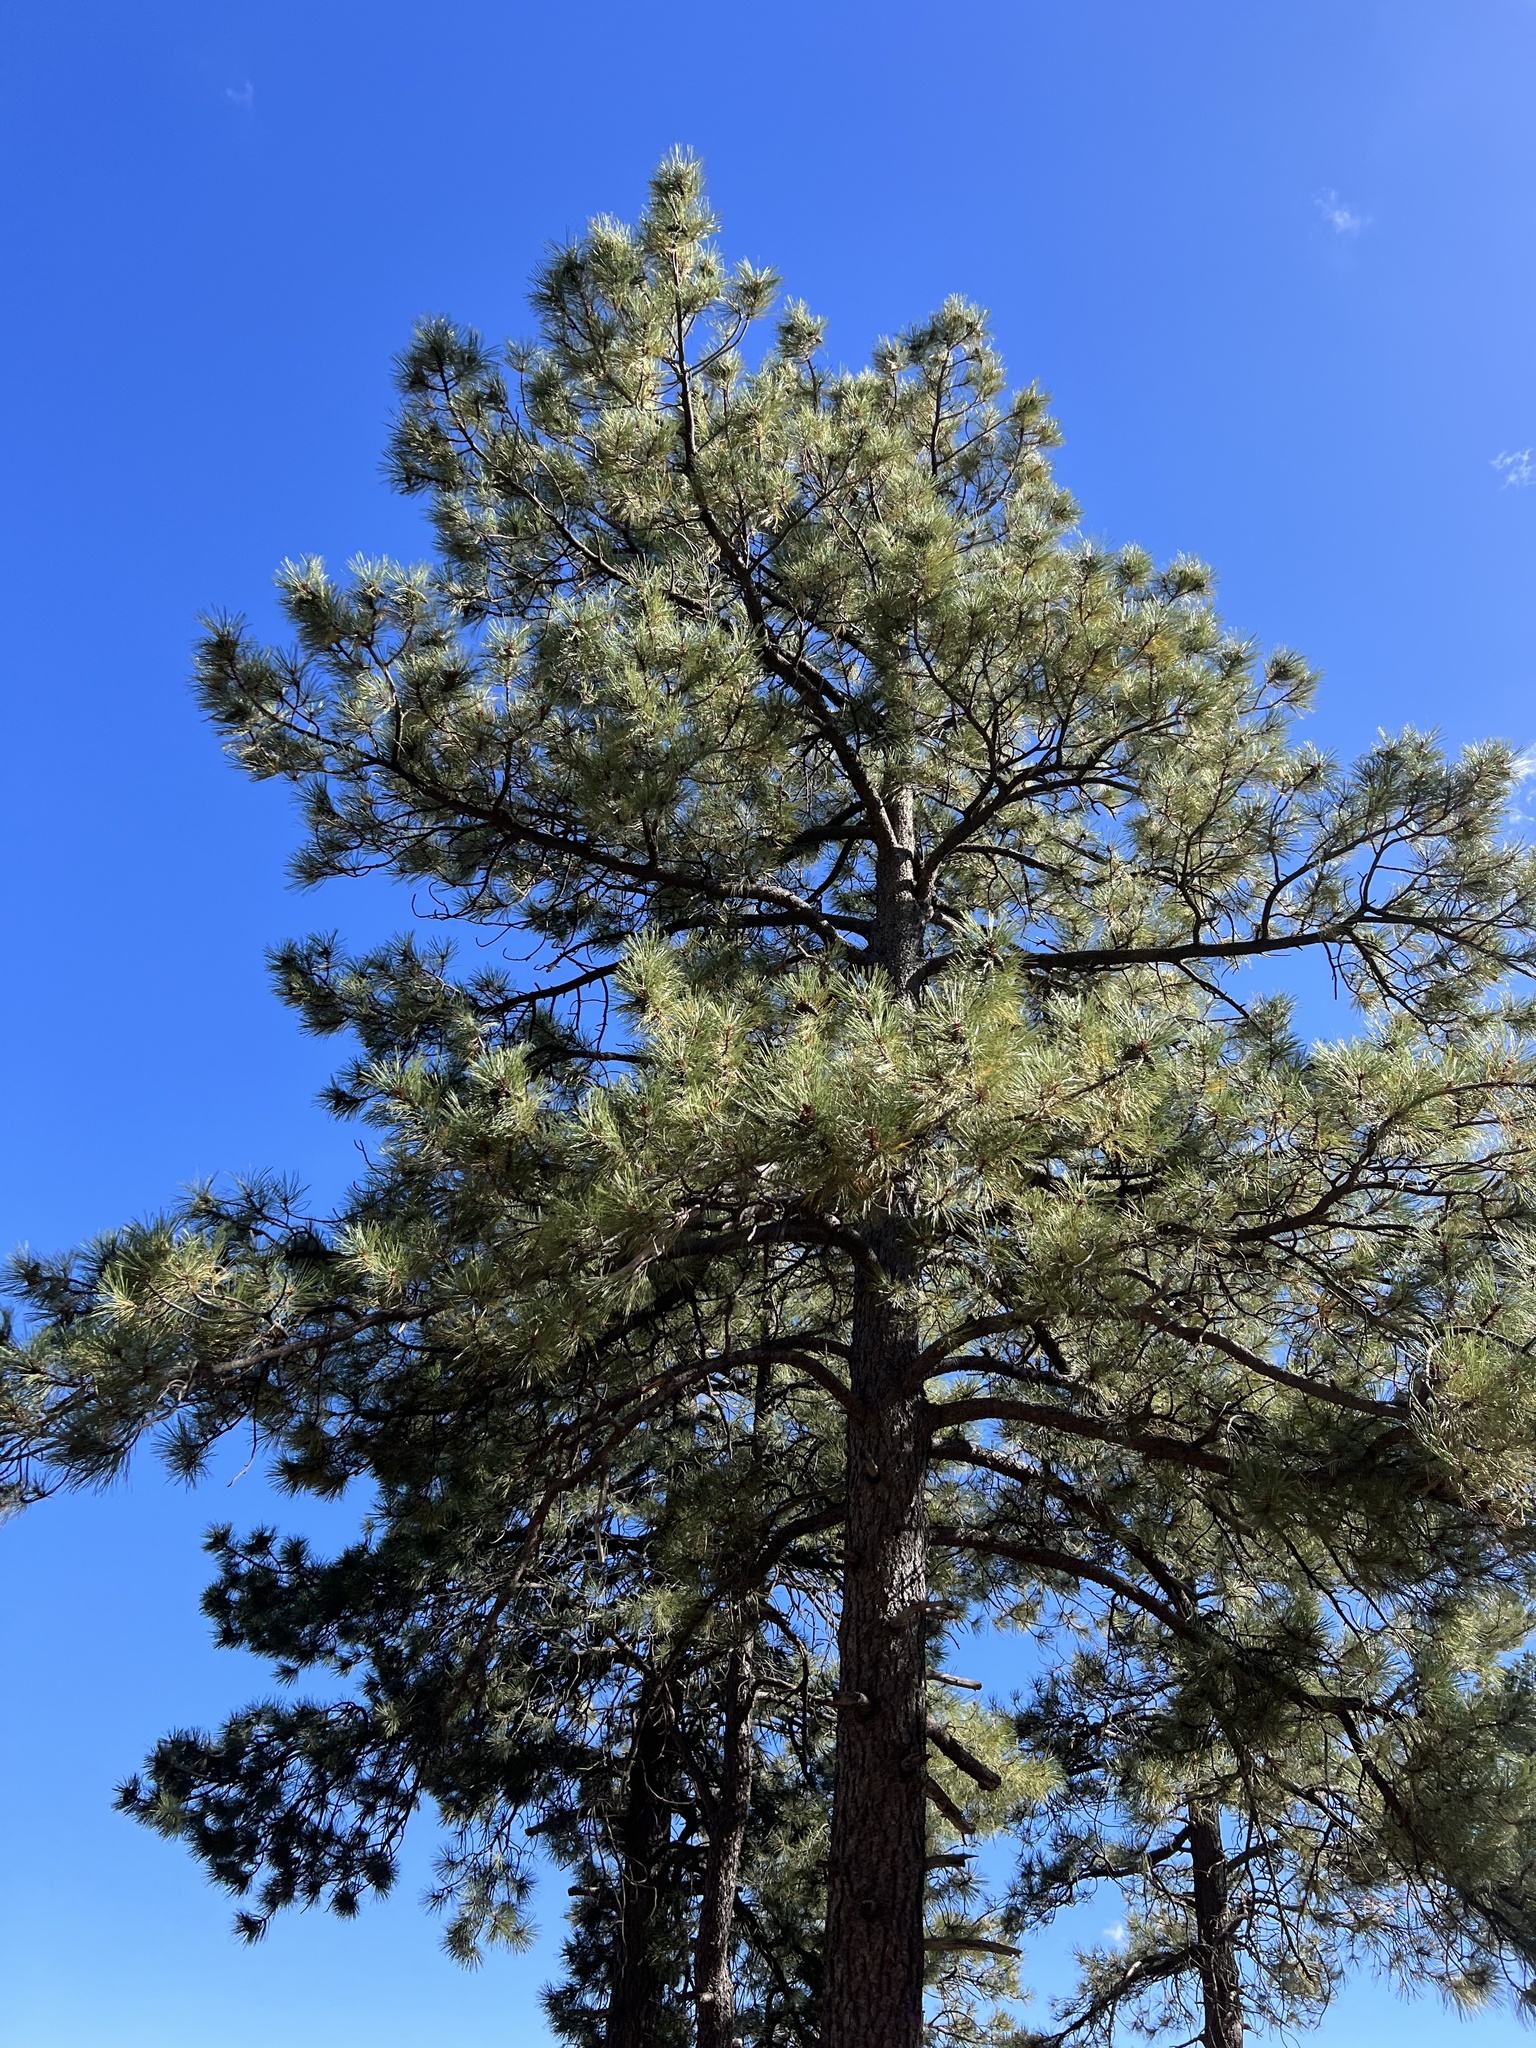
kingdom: Plantae
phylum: Tracheophyta
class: Pinopsida
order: Pinales
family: Pinaceae
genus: Pinus
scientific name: Pinus ponderosa
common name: Western yellow-pine
